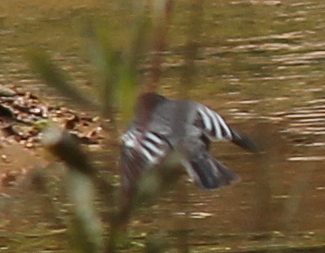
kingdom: Animalia
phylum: Chordata
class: Aves
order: Passeriformes
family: Tyrannidae
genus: Sayornis
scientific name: Sayornis nigricans
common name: Black phoebe
